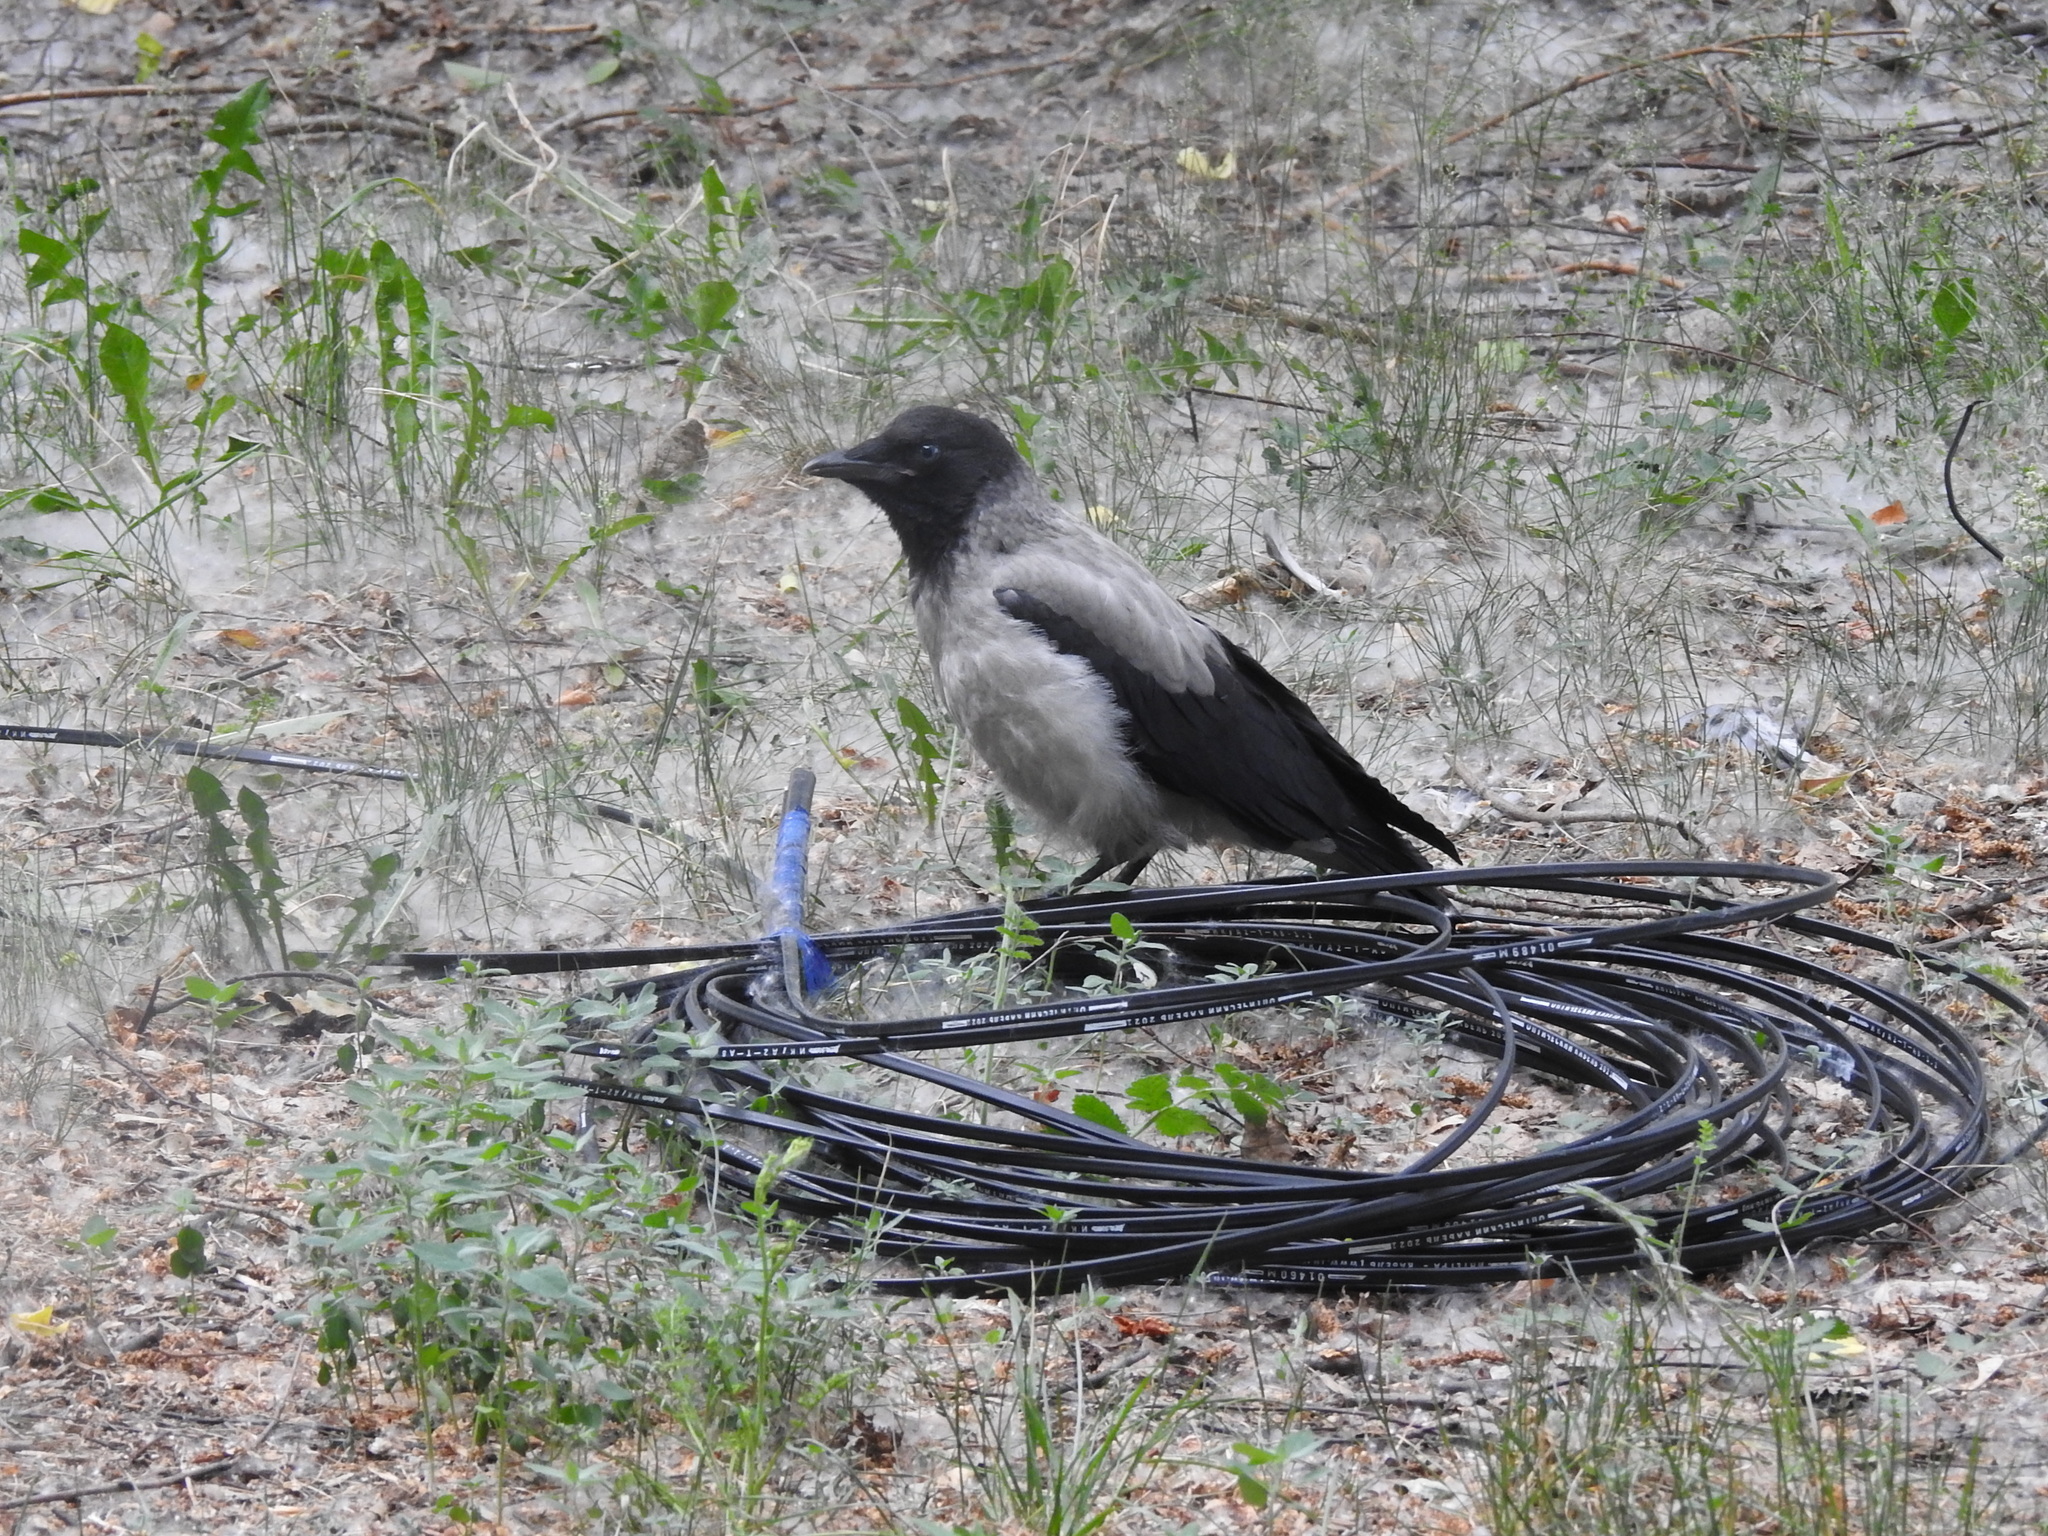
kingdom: Animalia
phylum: Chordata
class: Aves
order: Passeriformes
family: Corvidae
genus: Corvus
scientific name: Corvus cornix
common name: Hooded crow
